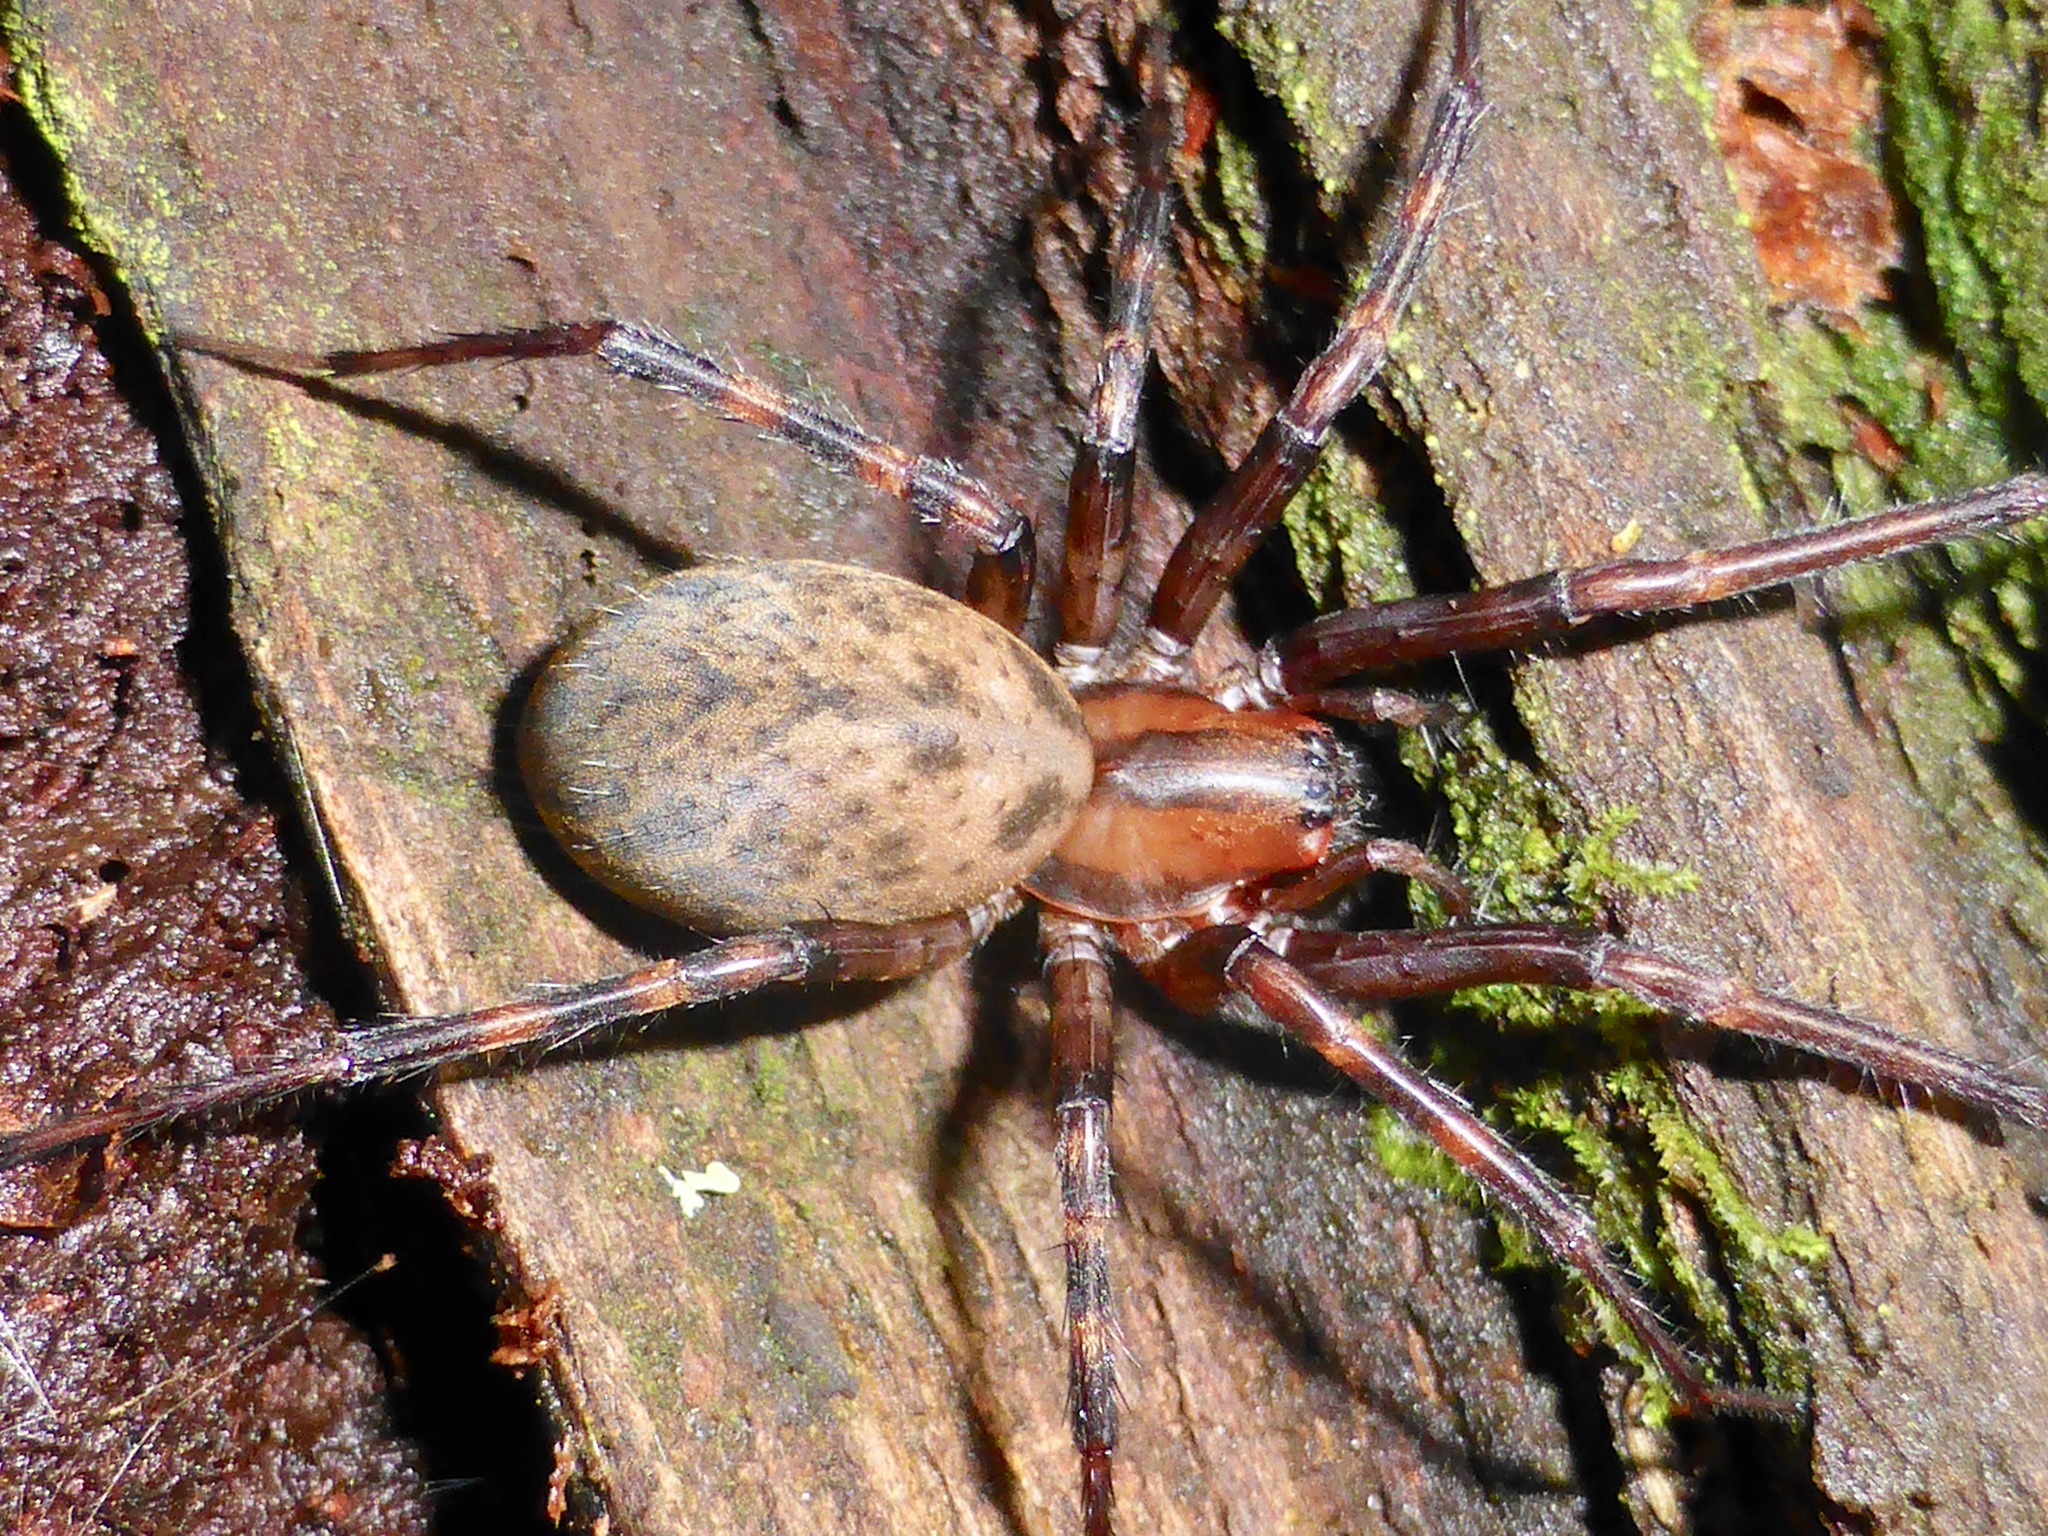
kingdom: Animalia
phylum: Arthropoda
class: Arachnida
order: Araneae
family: Desidae
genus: Cambridgea
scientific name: Cambridgea quadromaculata
